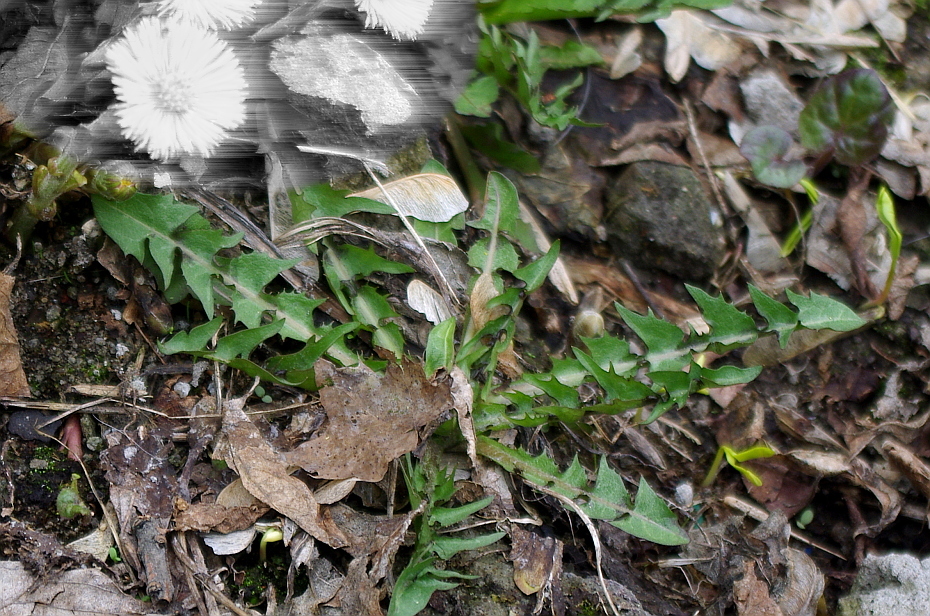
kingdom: Plantae
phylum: Tracheophyta
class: Magnoliopsida
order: Asterales
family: Asteraceae
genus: Taraxacum
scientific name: Taraxacum officinale
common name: Common dandelion
